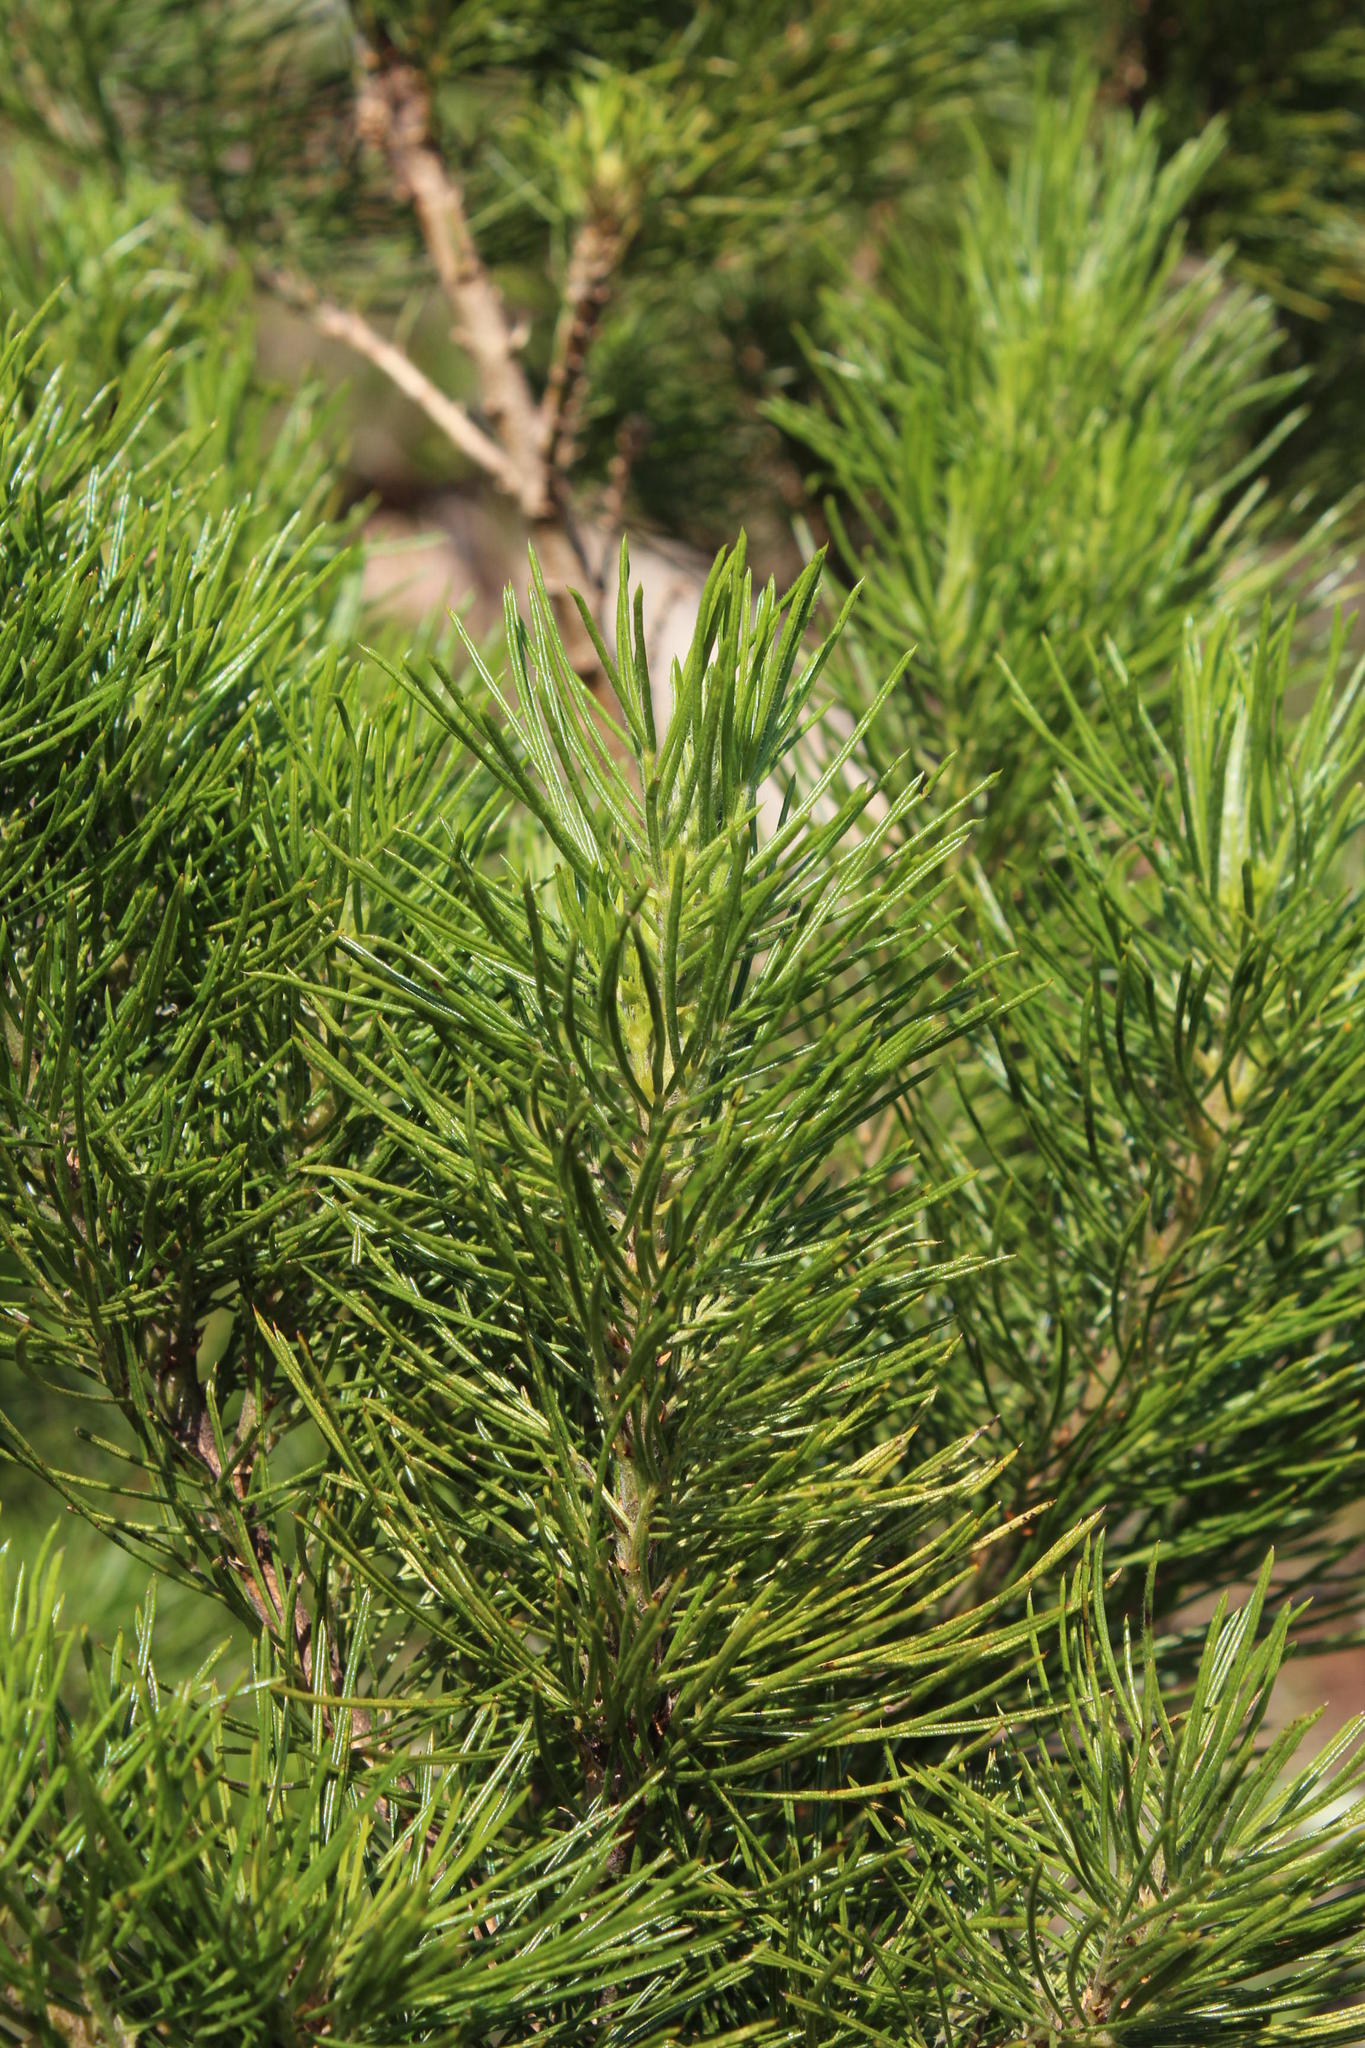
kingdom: Plantae
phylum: Tracheophyta
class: Magnoliopsida
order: Fabales
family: Fabaceae
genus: Psoralea
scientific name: Psoralea pinnata
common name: African scurfpea
